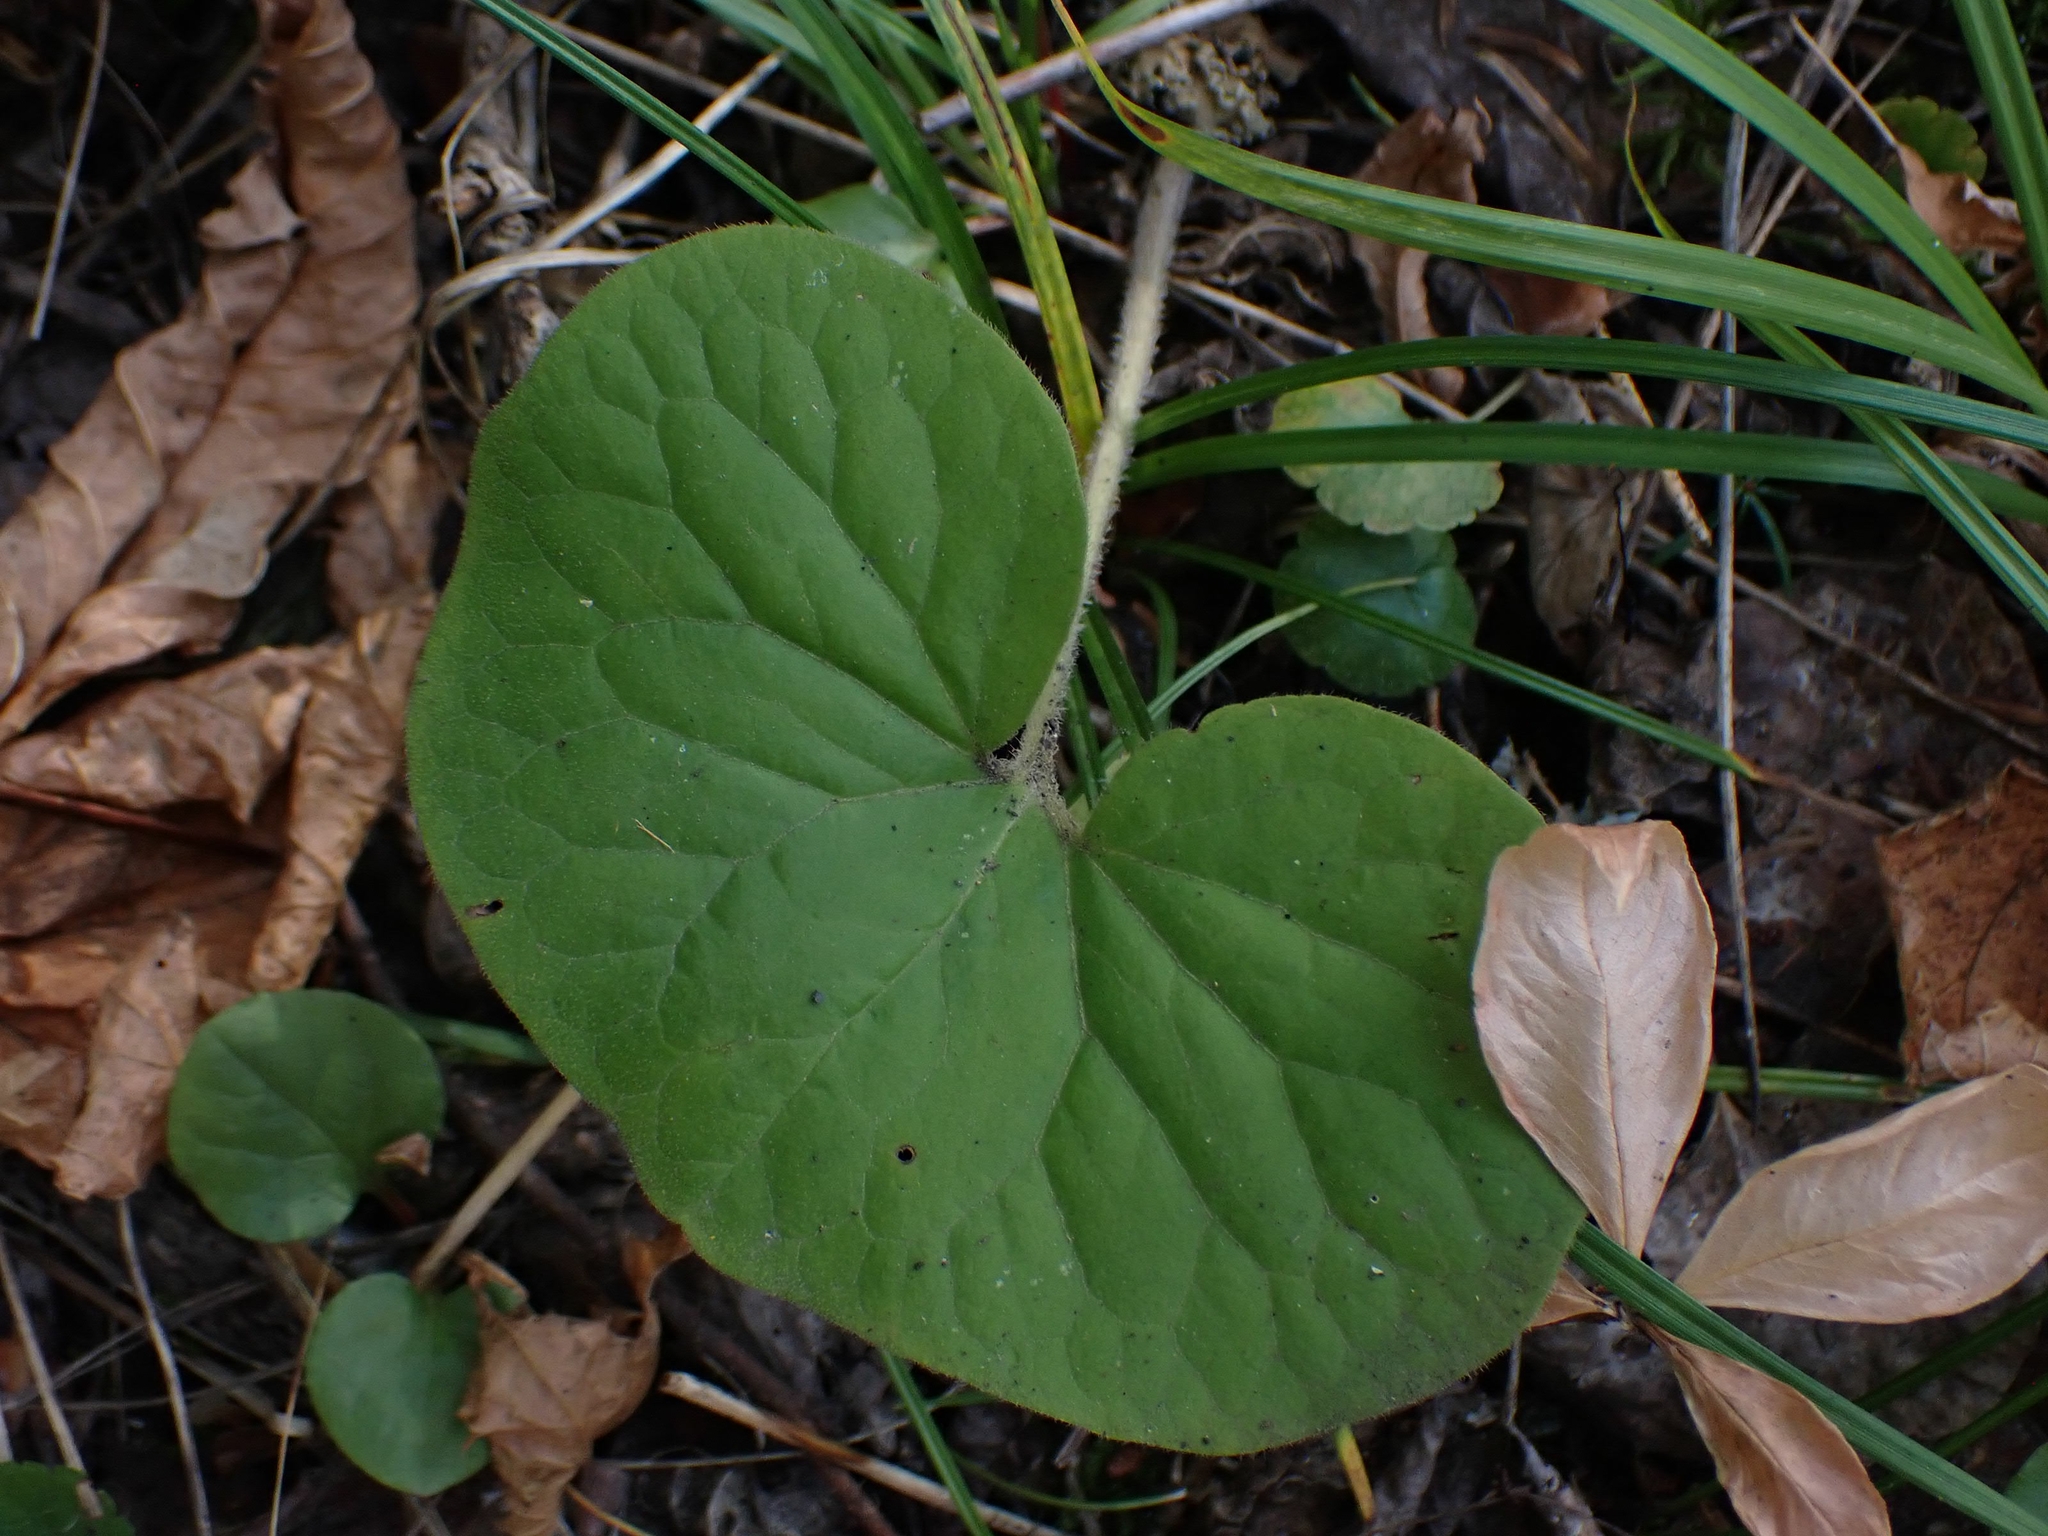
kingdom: Plantae
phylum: Tracheophyta
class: Magnoliopsida
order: Piperales
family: Aristolochiaceae
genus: Asarum
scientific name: Asarum canadense
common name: Wild ginger
